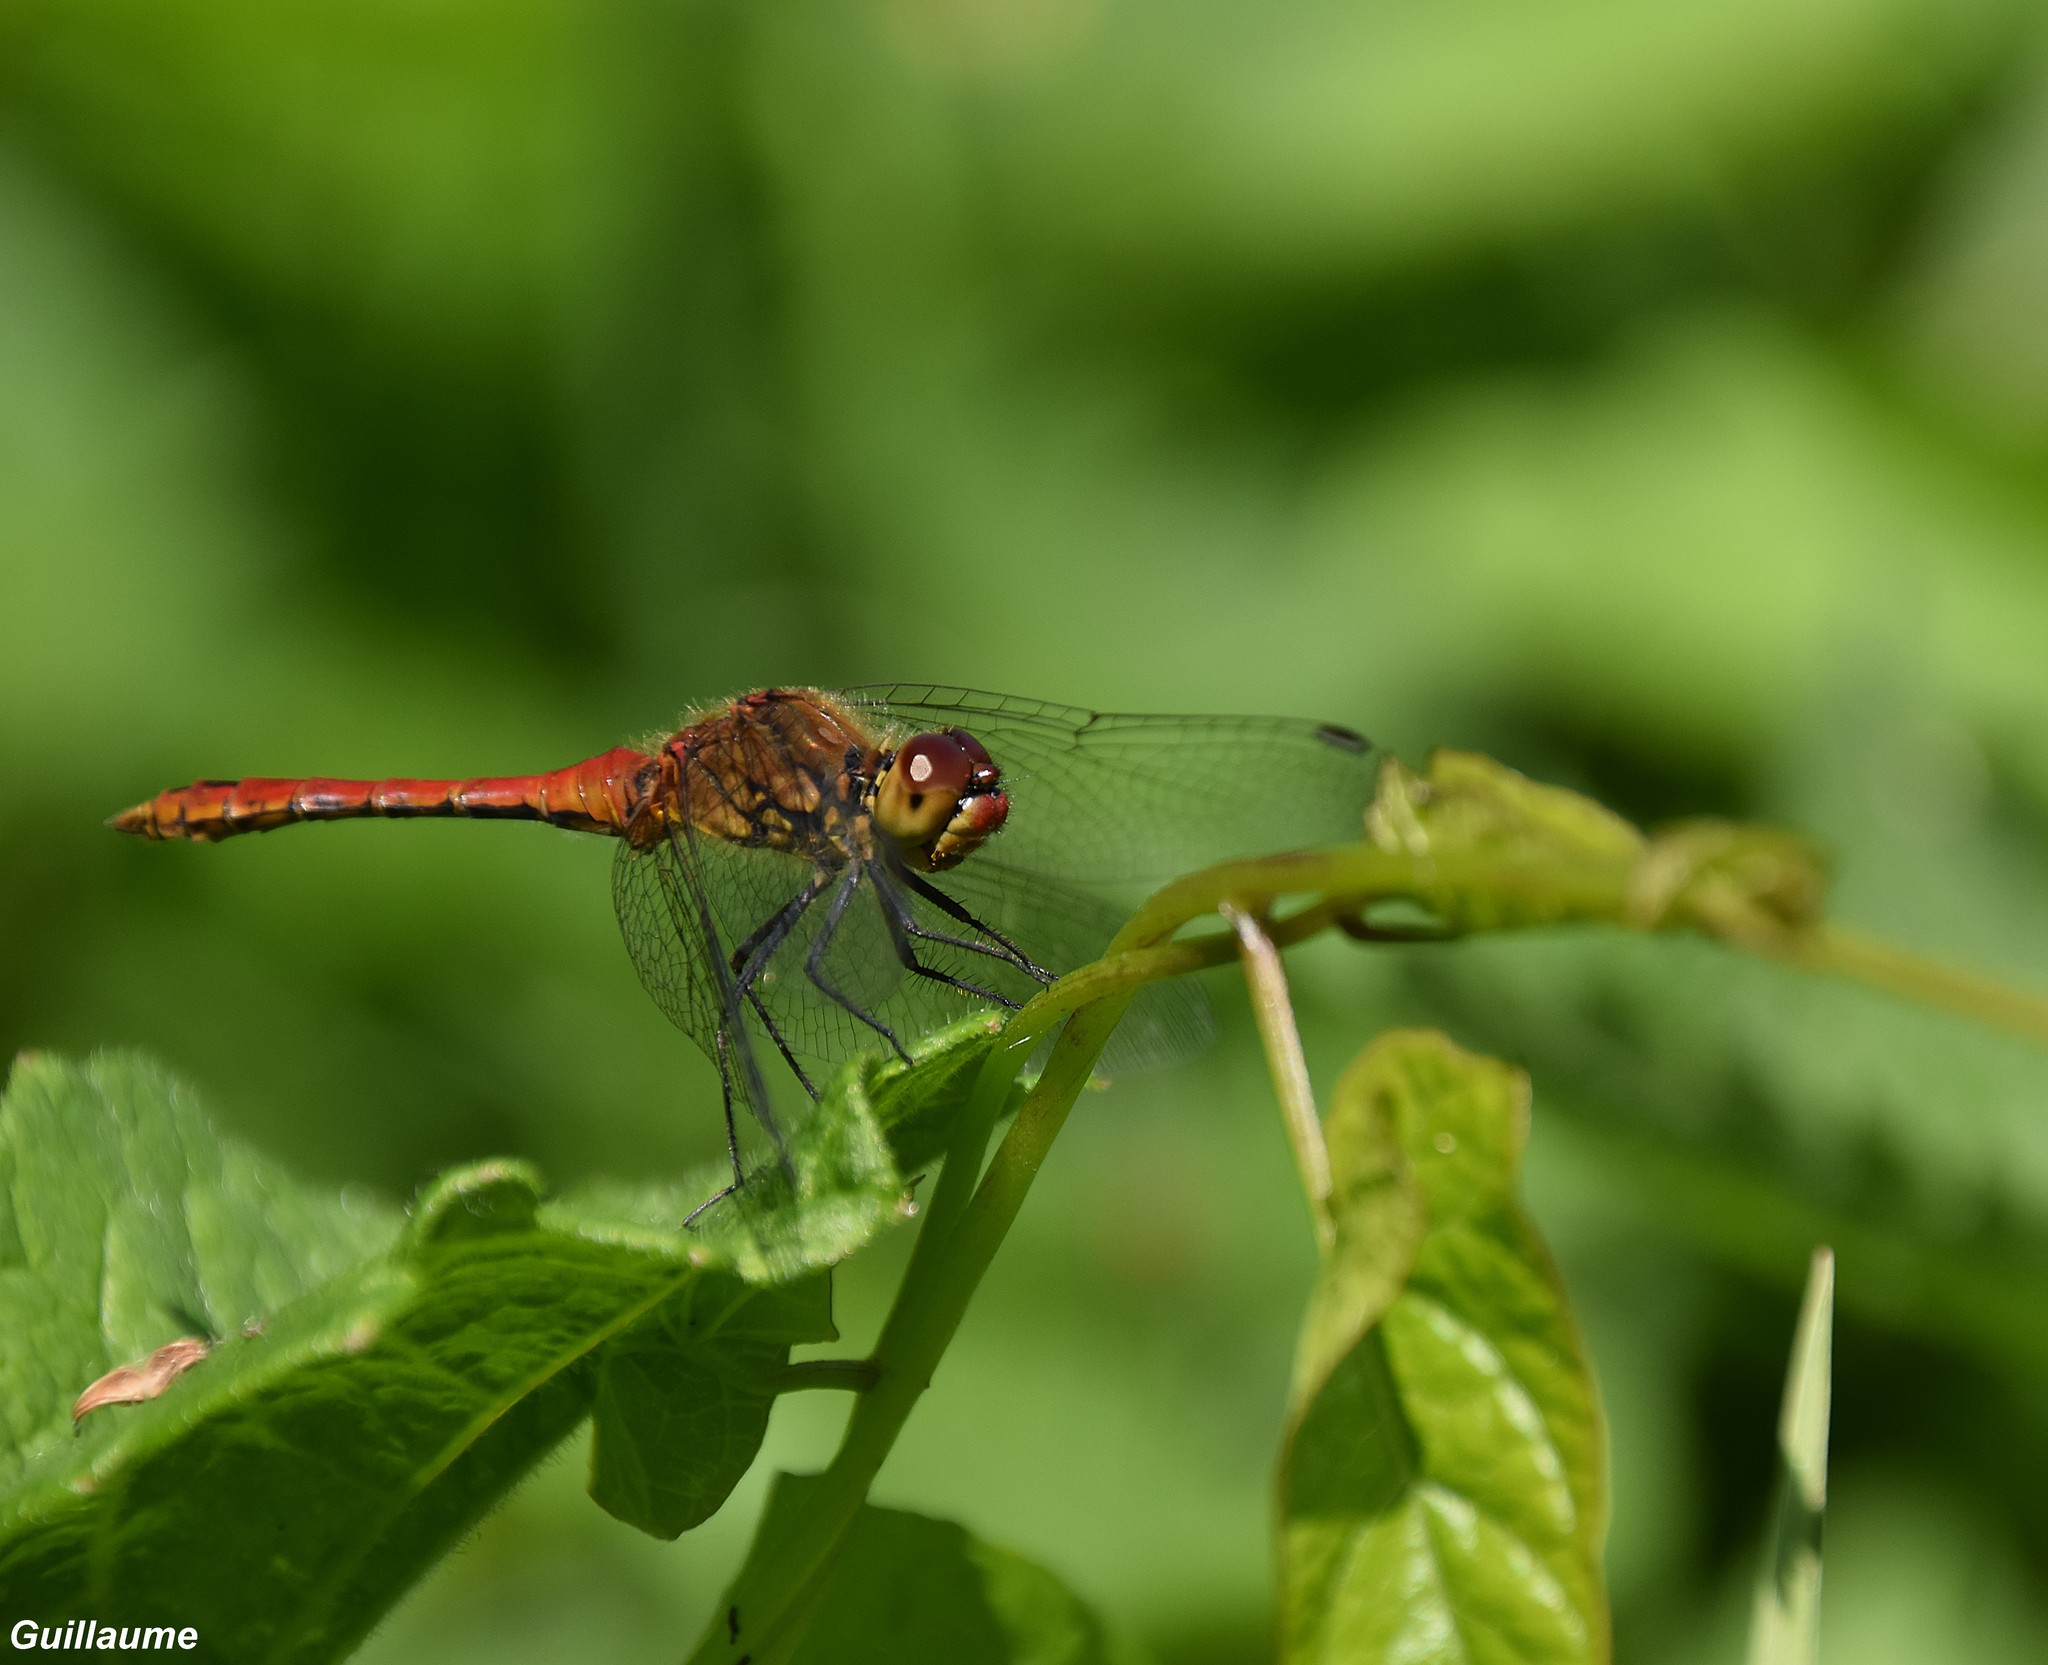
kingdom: Animalia
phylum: Arthropoda
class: Insecta
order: Odonata
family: Libellulidae
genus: Sympetrum
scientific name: Sympetrum sanguineum
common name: Ruddy darter
